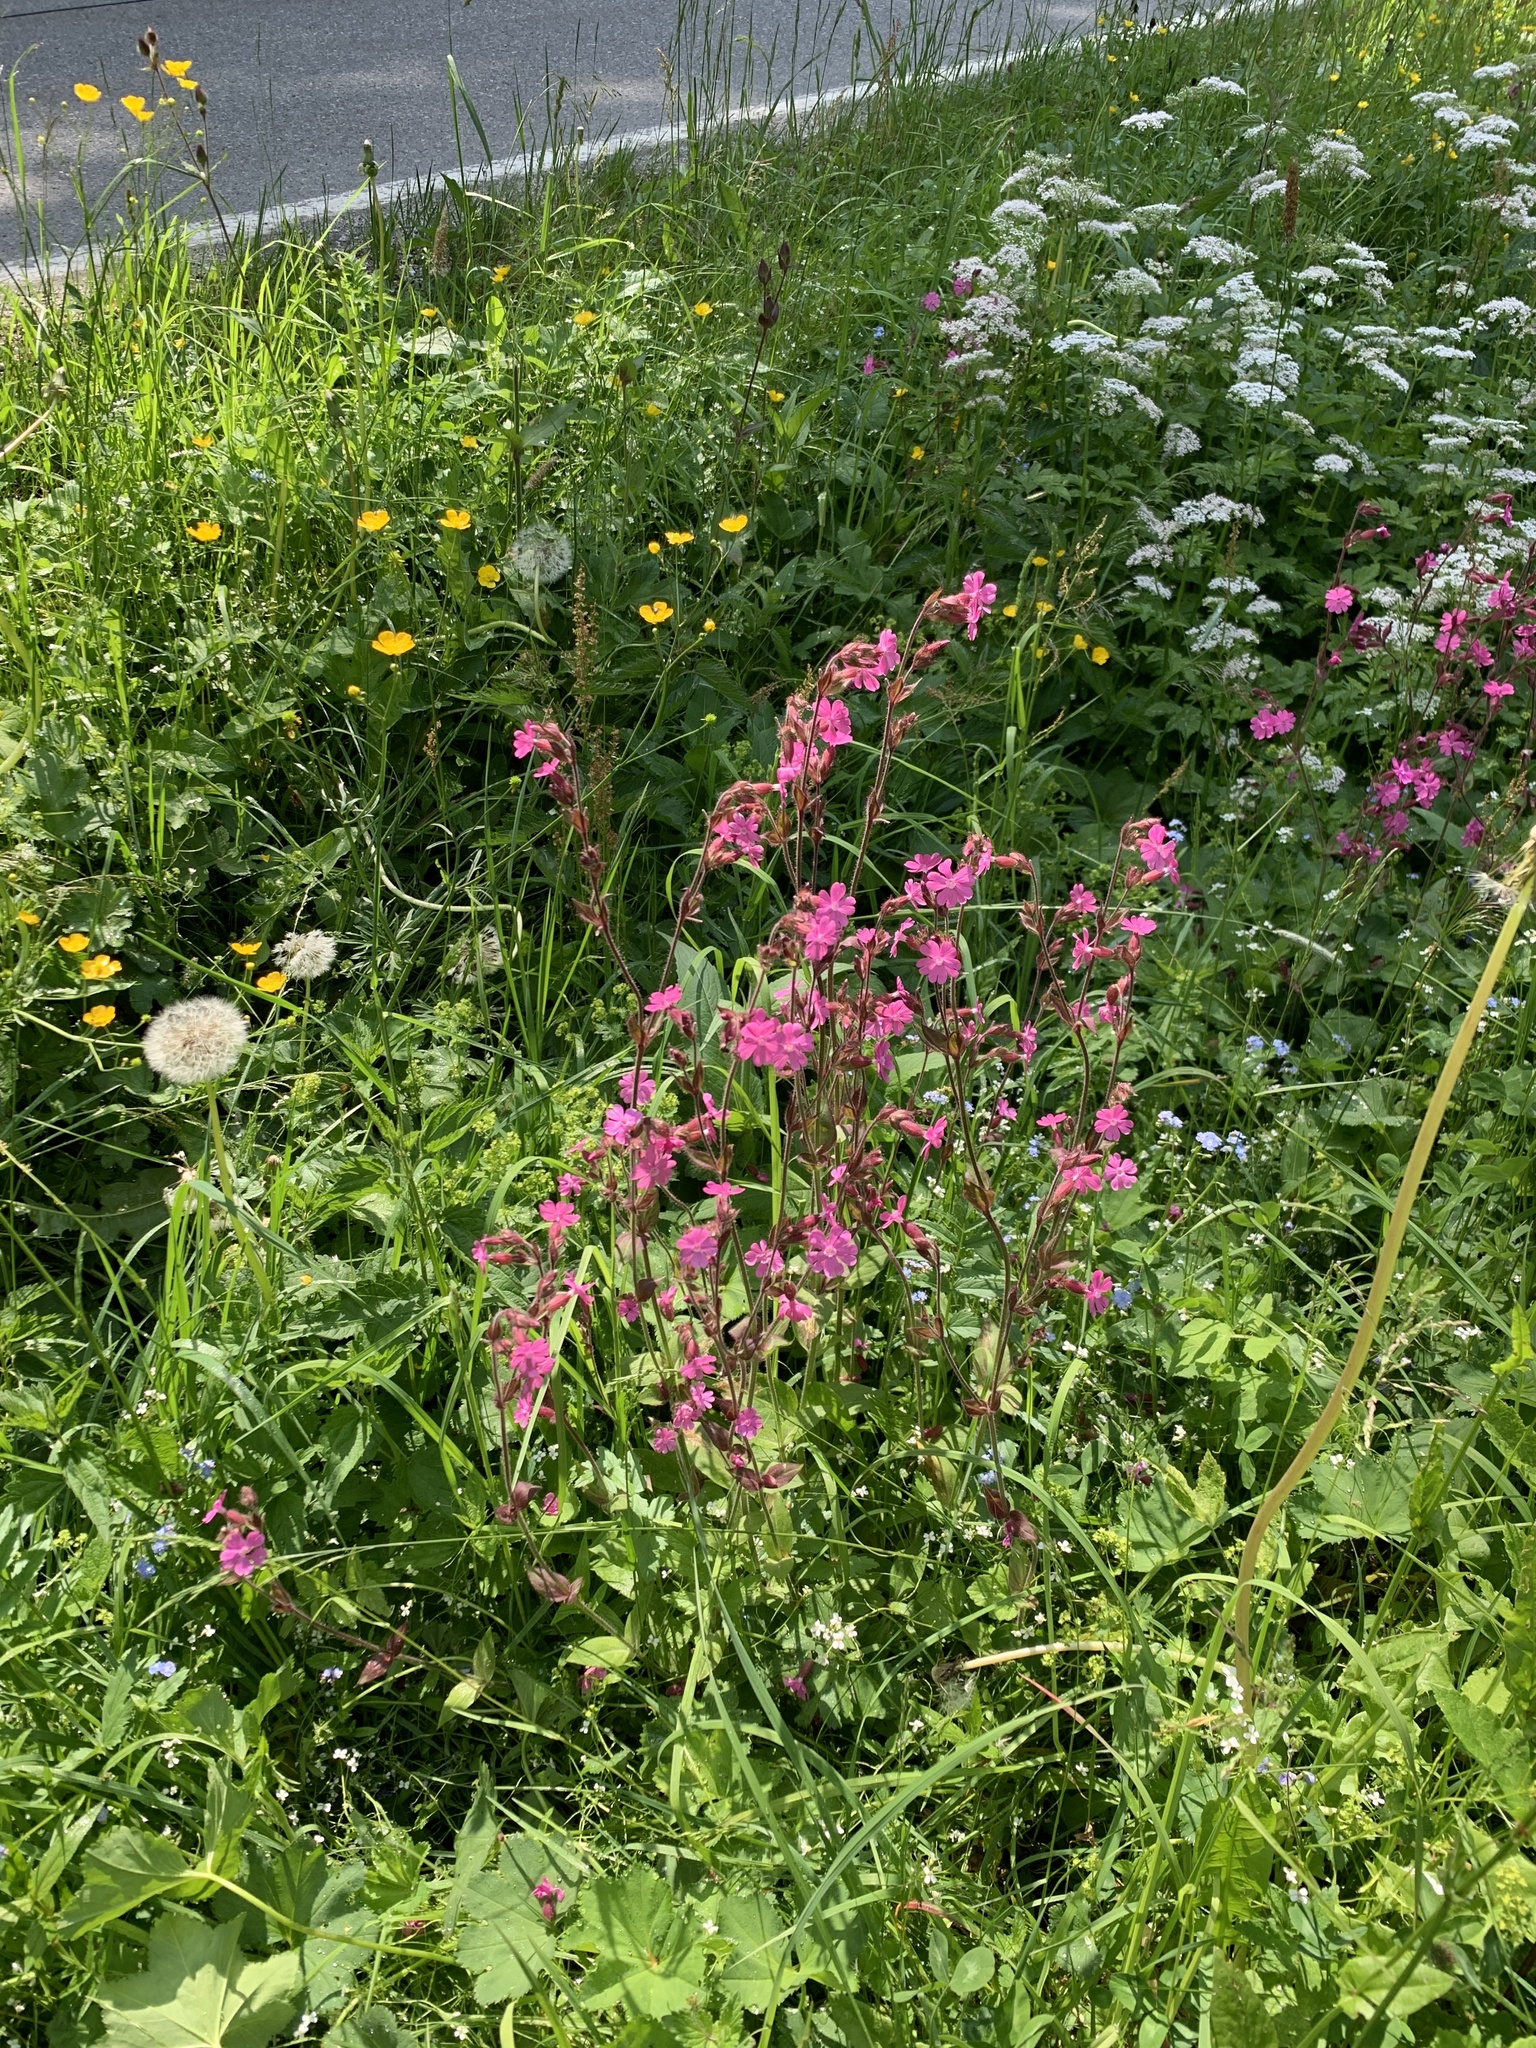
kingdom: Plantae
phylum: Tracheophyta
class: Magnoliopsida
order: Caryophyllales
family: Caryophyllaceae
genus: Silene
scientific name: Silene dioica
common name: Red campion
